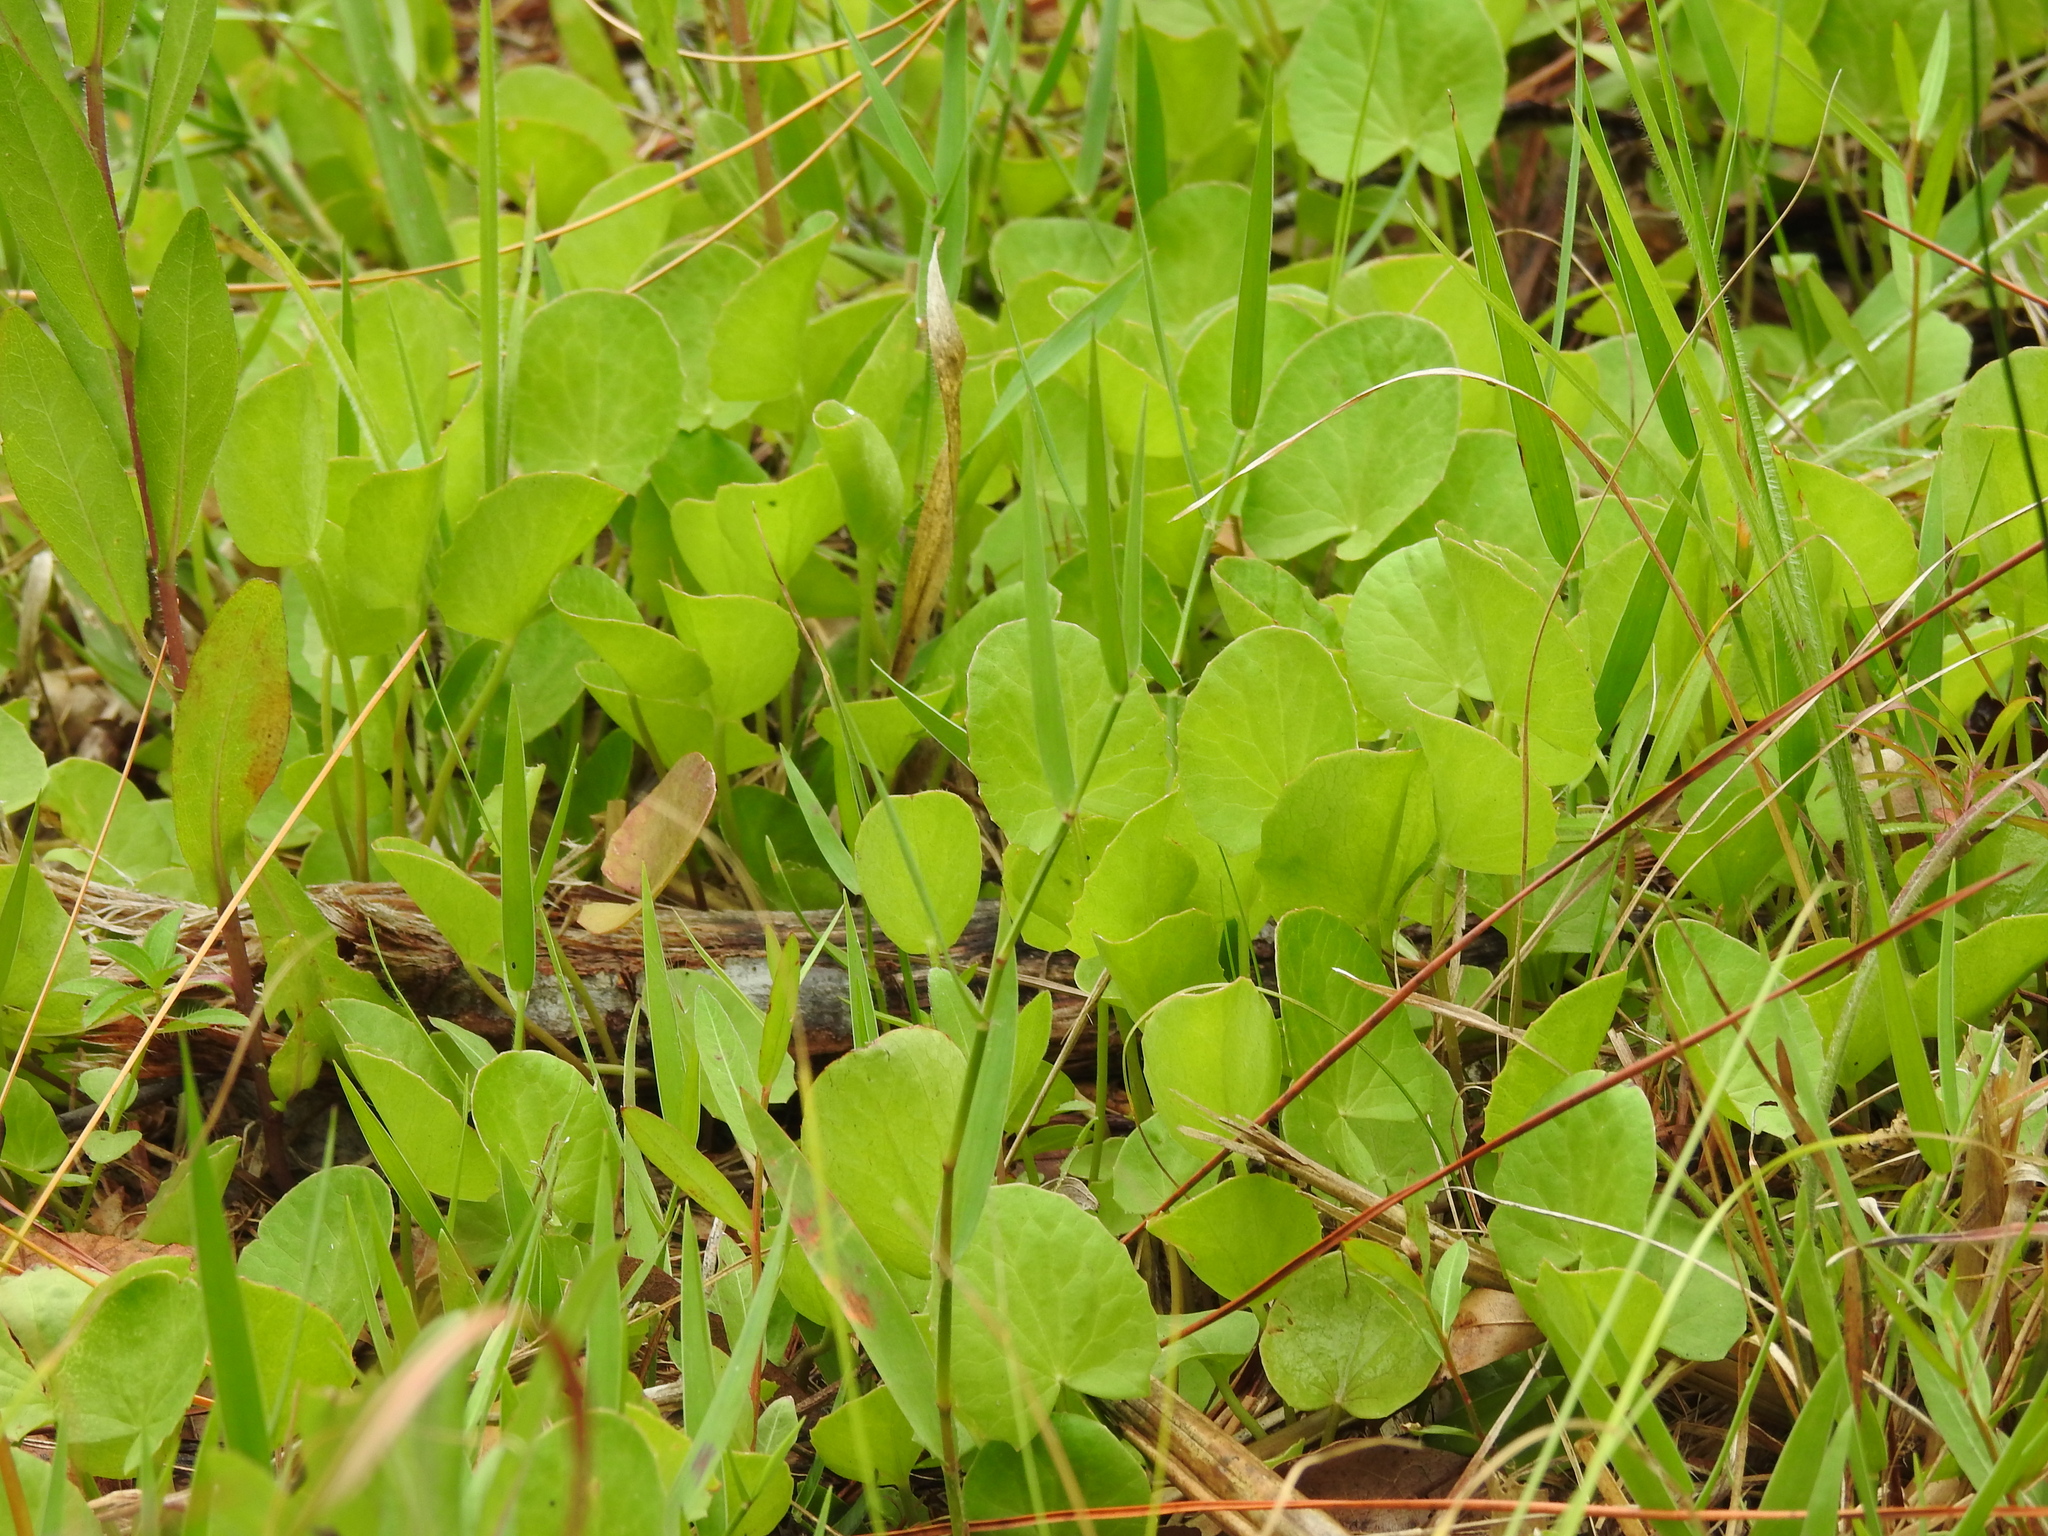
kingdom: Plantae
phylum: Tracheophyta
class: Magnoliopsida
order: Apiales
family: Apiaceae
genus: Centella
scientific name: Centella erecta
